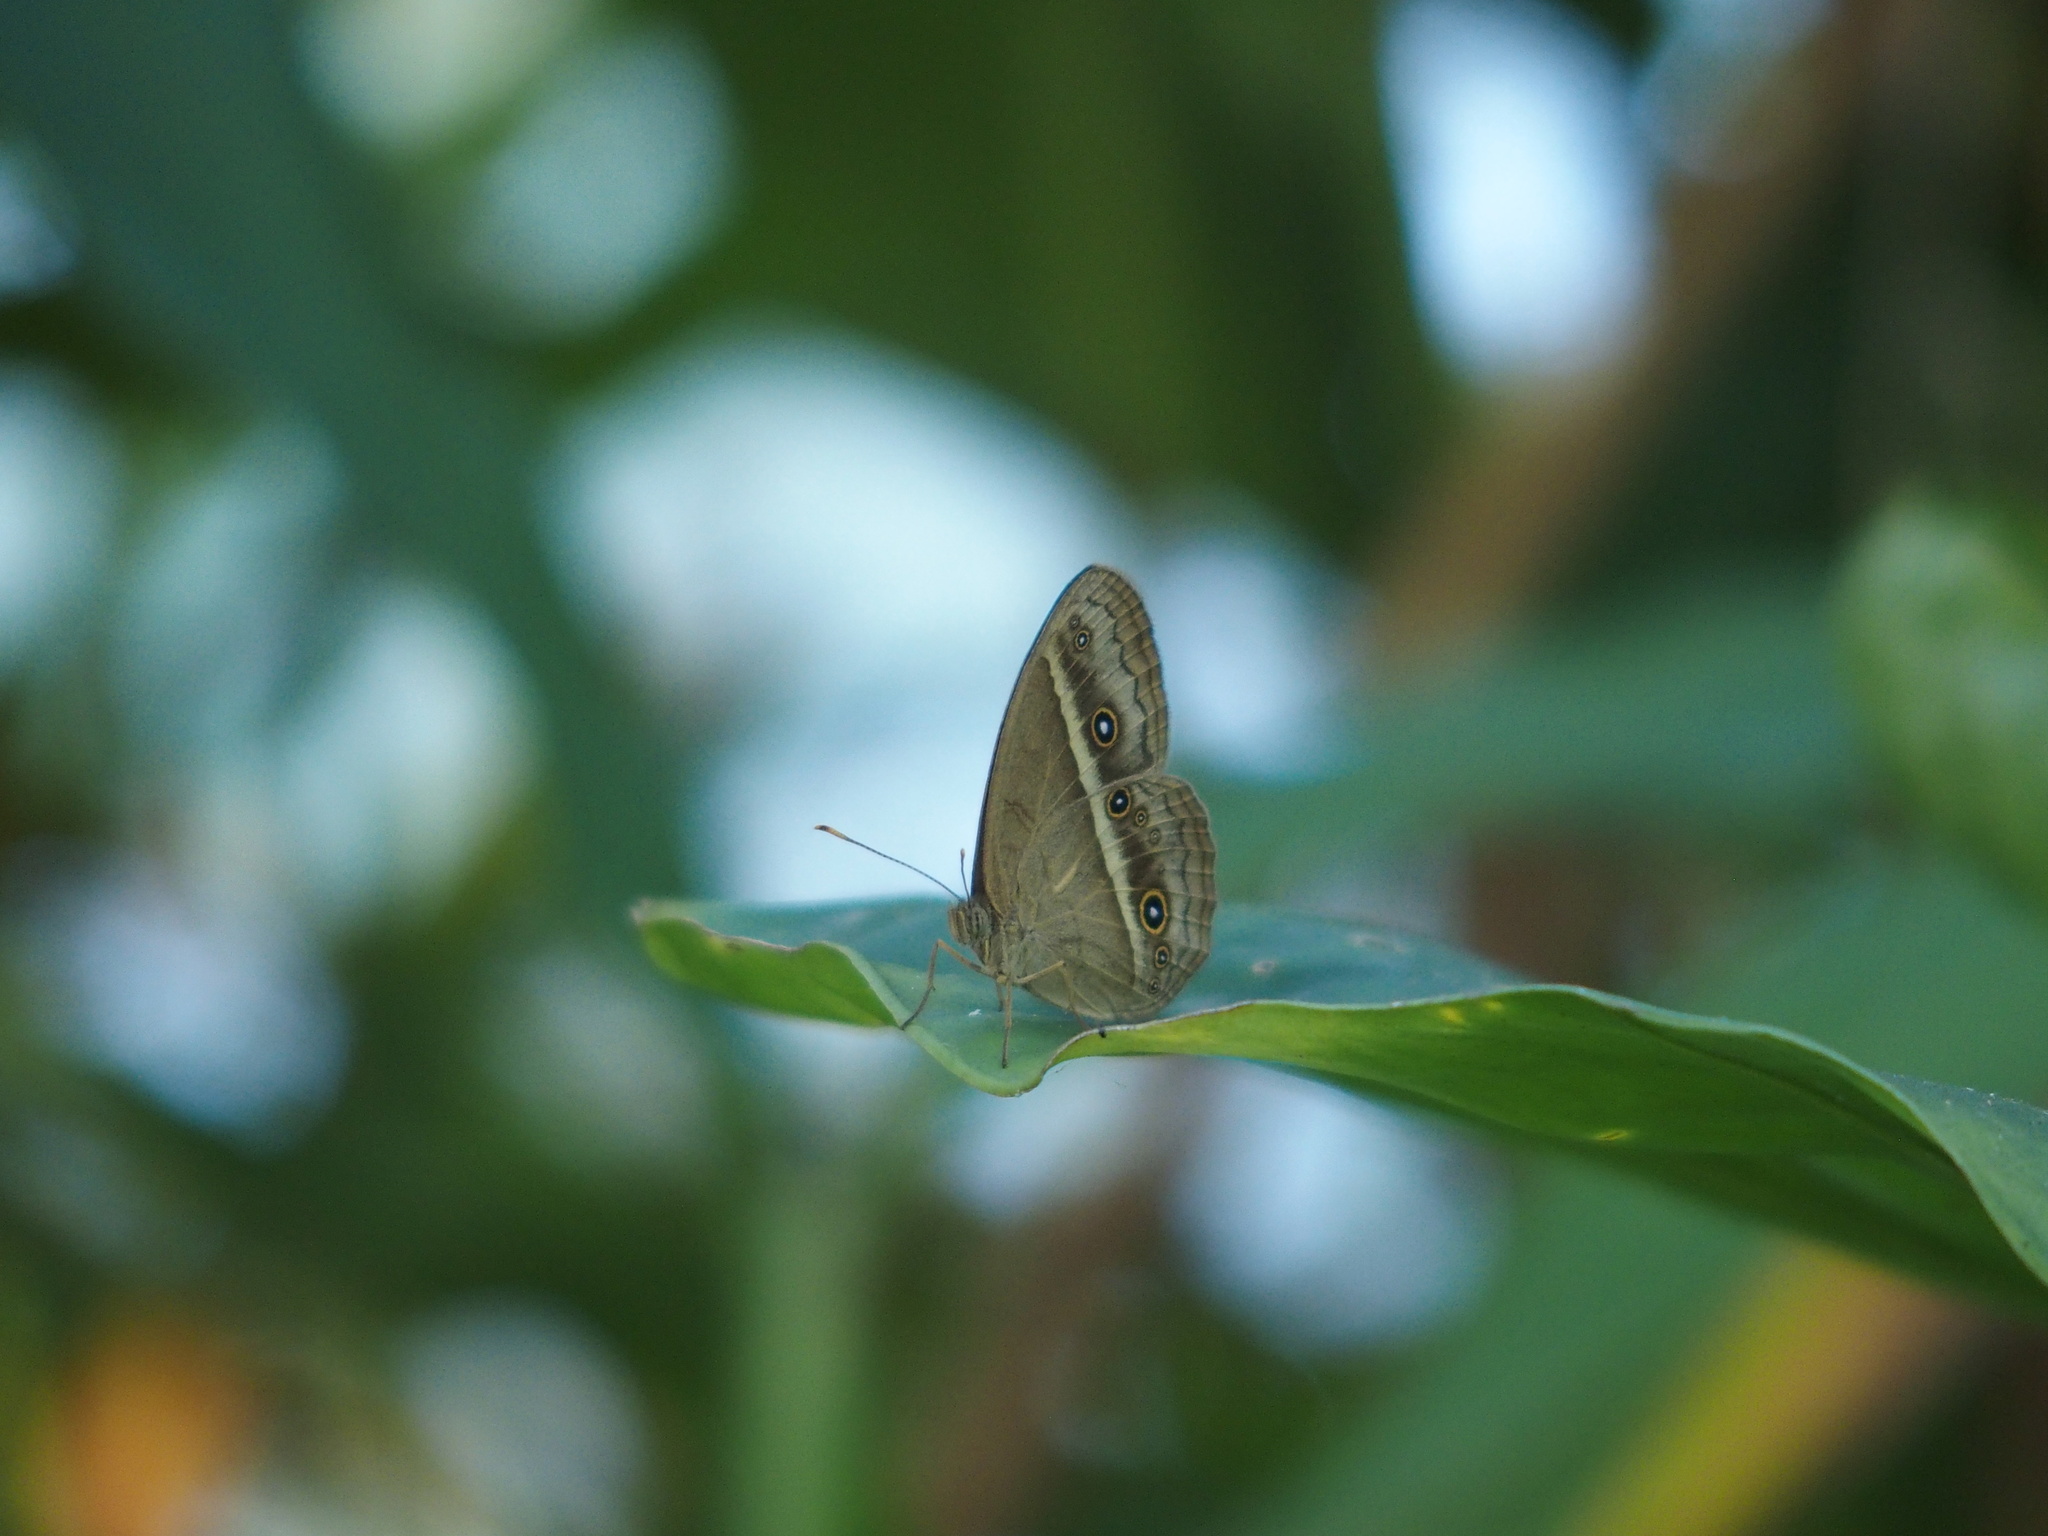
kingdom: Animalia
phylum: Arthropoda
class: Insecta
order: Lepidoptera
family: Nymphalidae
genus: Mycalesis
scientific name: Mycalesis gotama
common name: Chinese bushbrown
